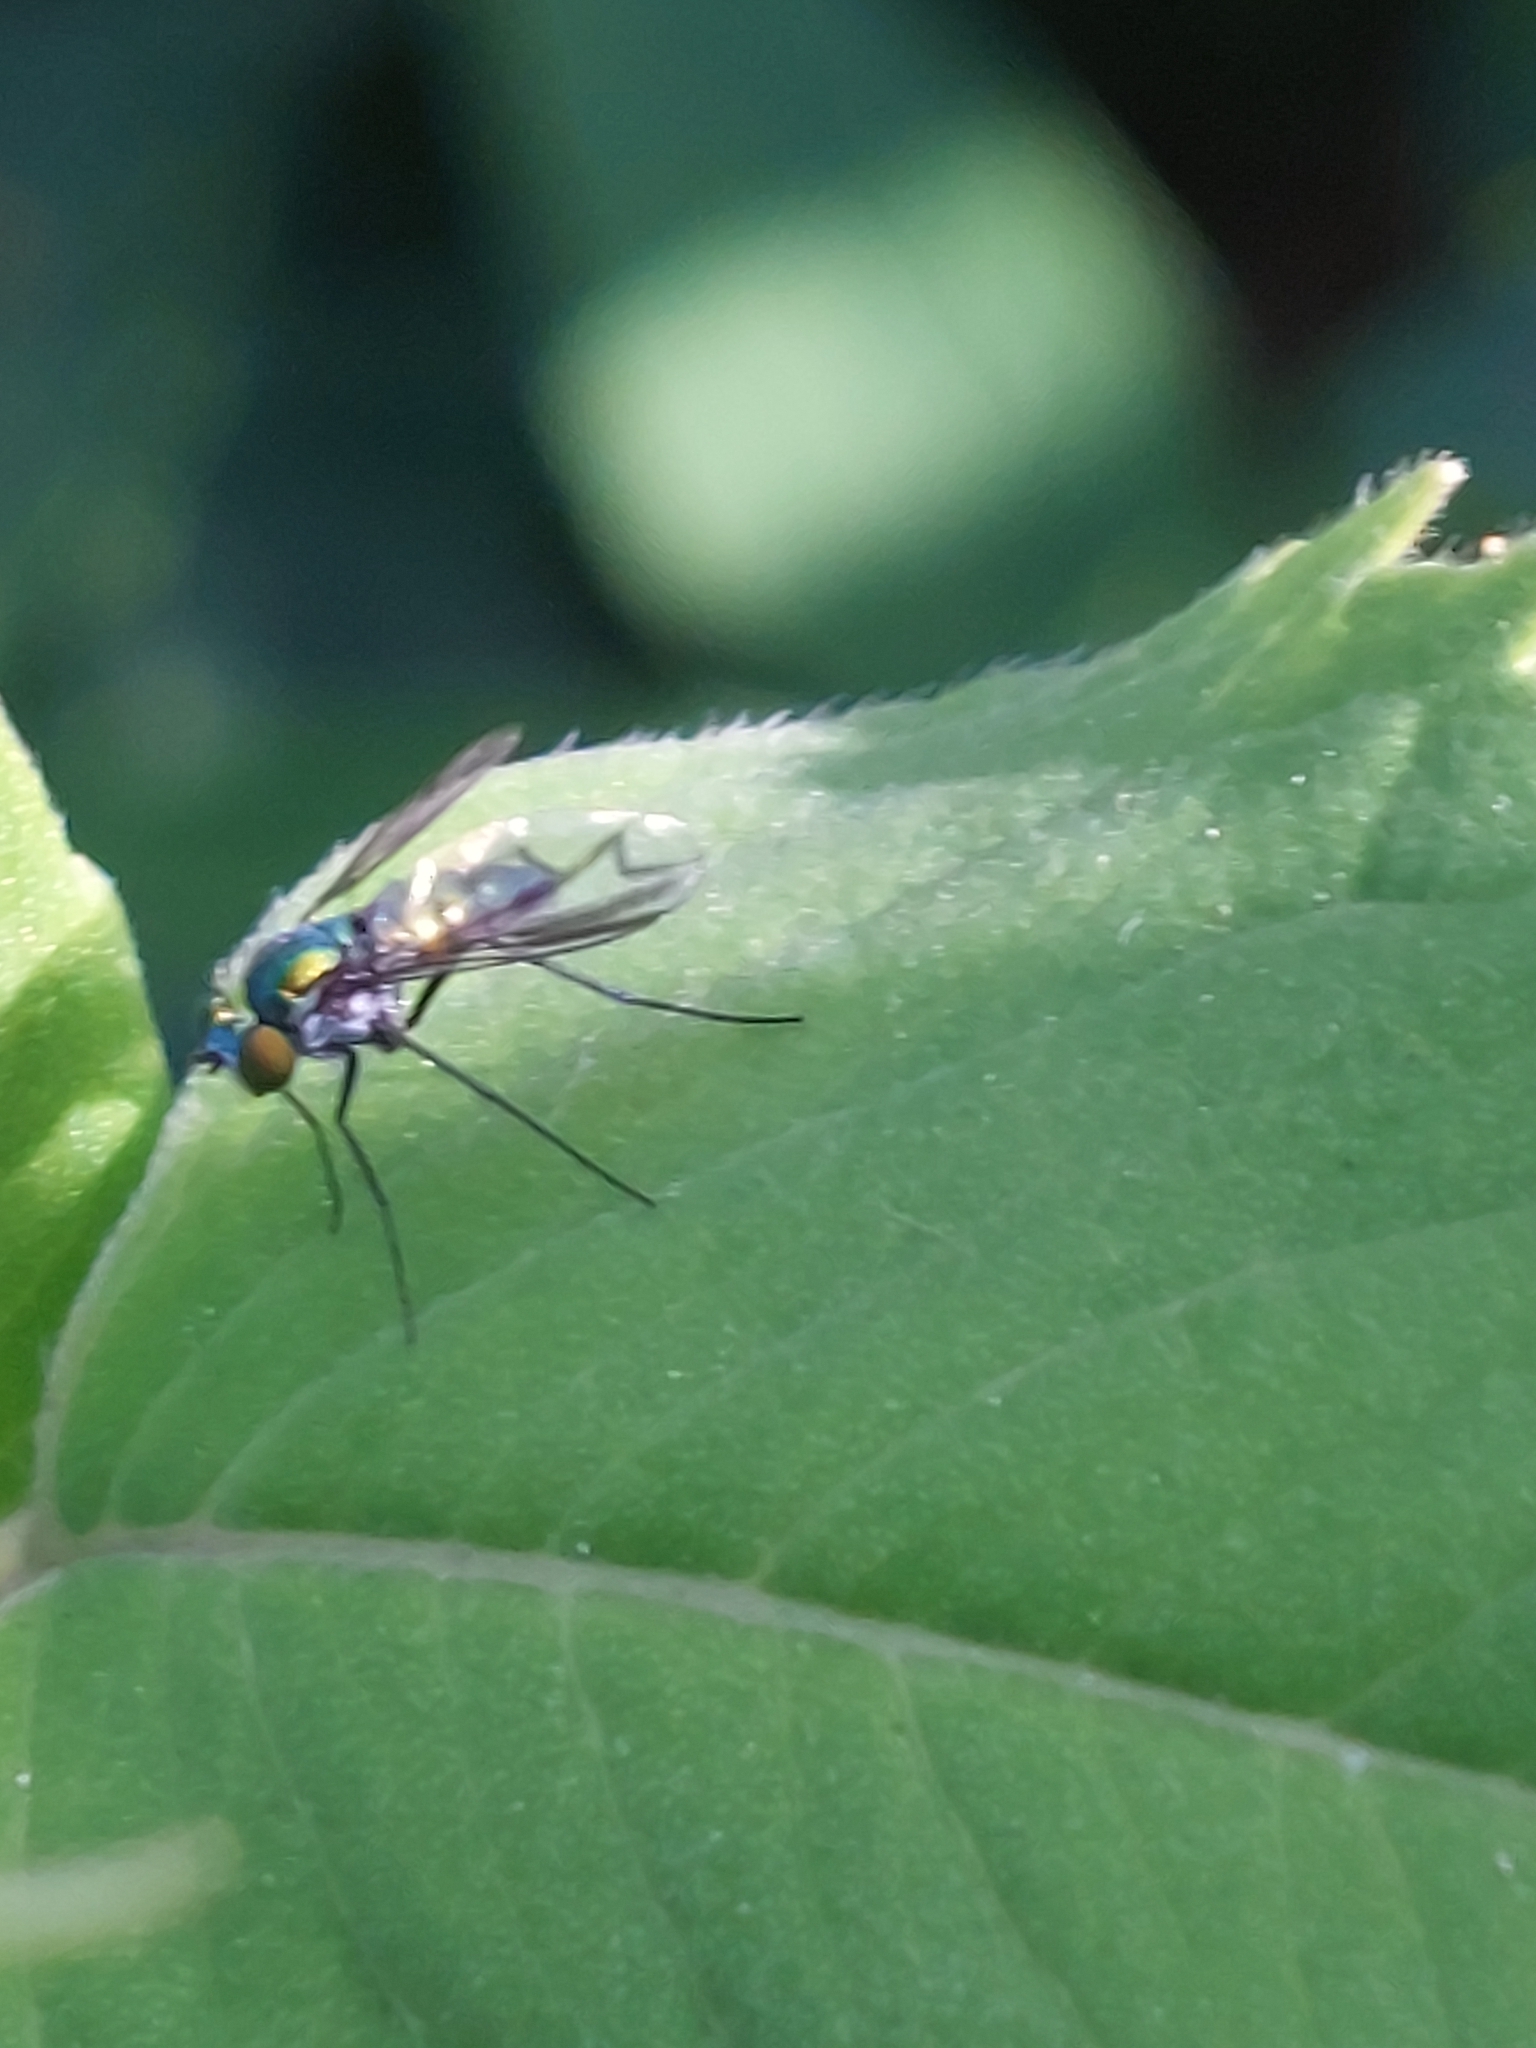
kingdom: Animalia
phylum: Arthropoda
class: Insecta
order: Diptera
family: Dolichopodidae
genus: Condylostylus
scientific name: Condylostylus patibulatus
